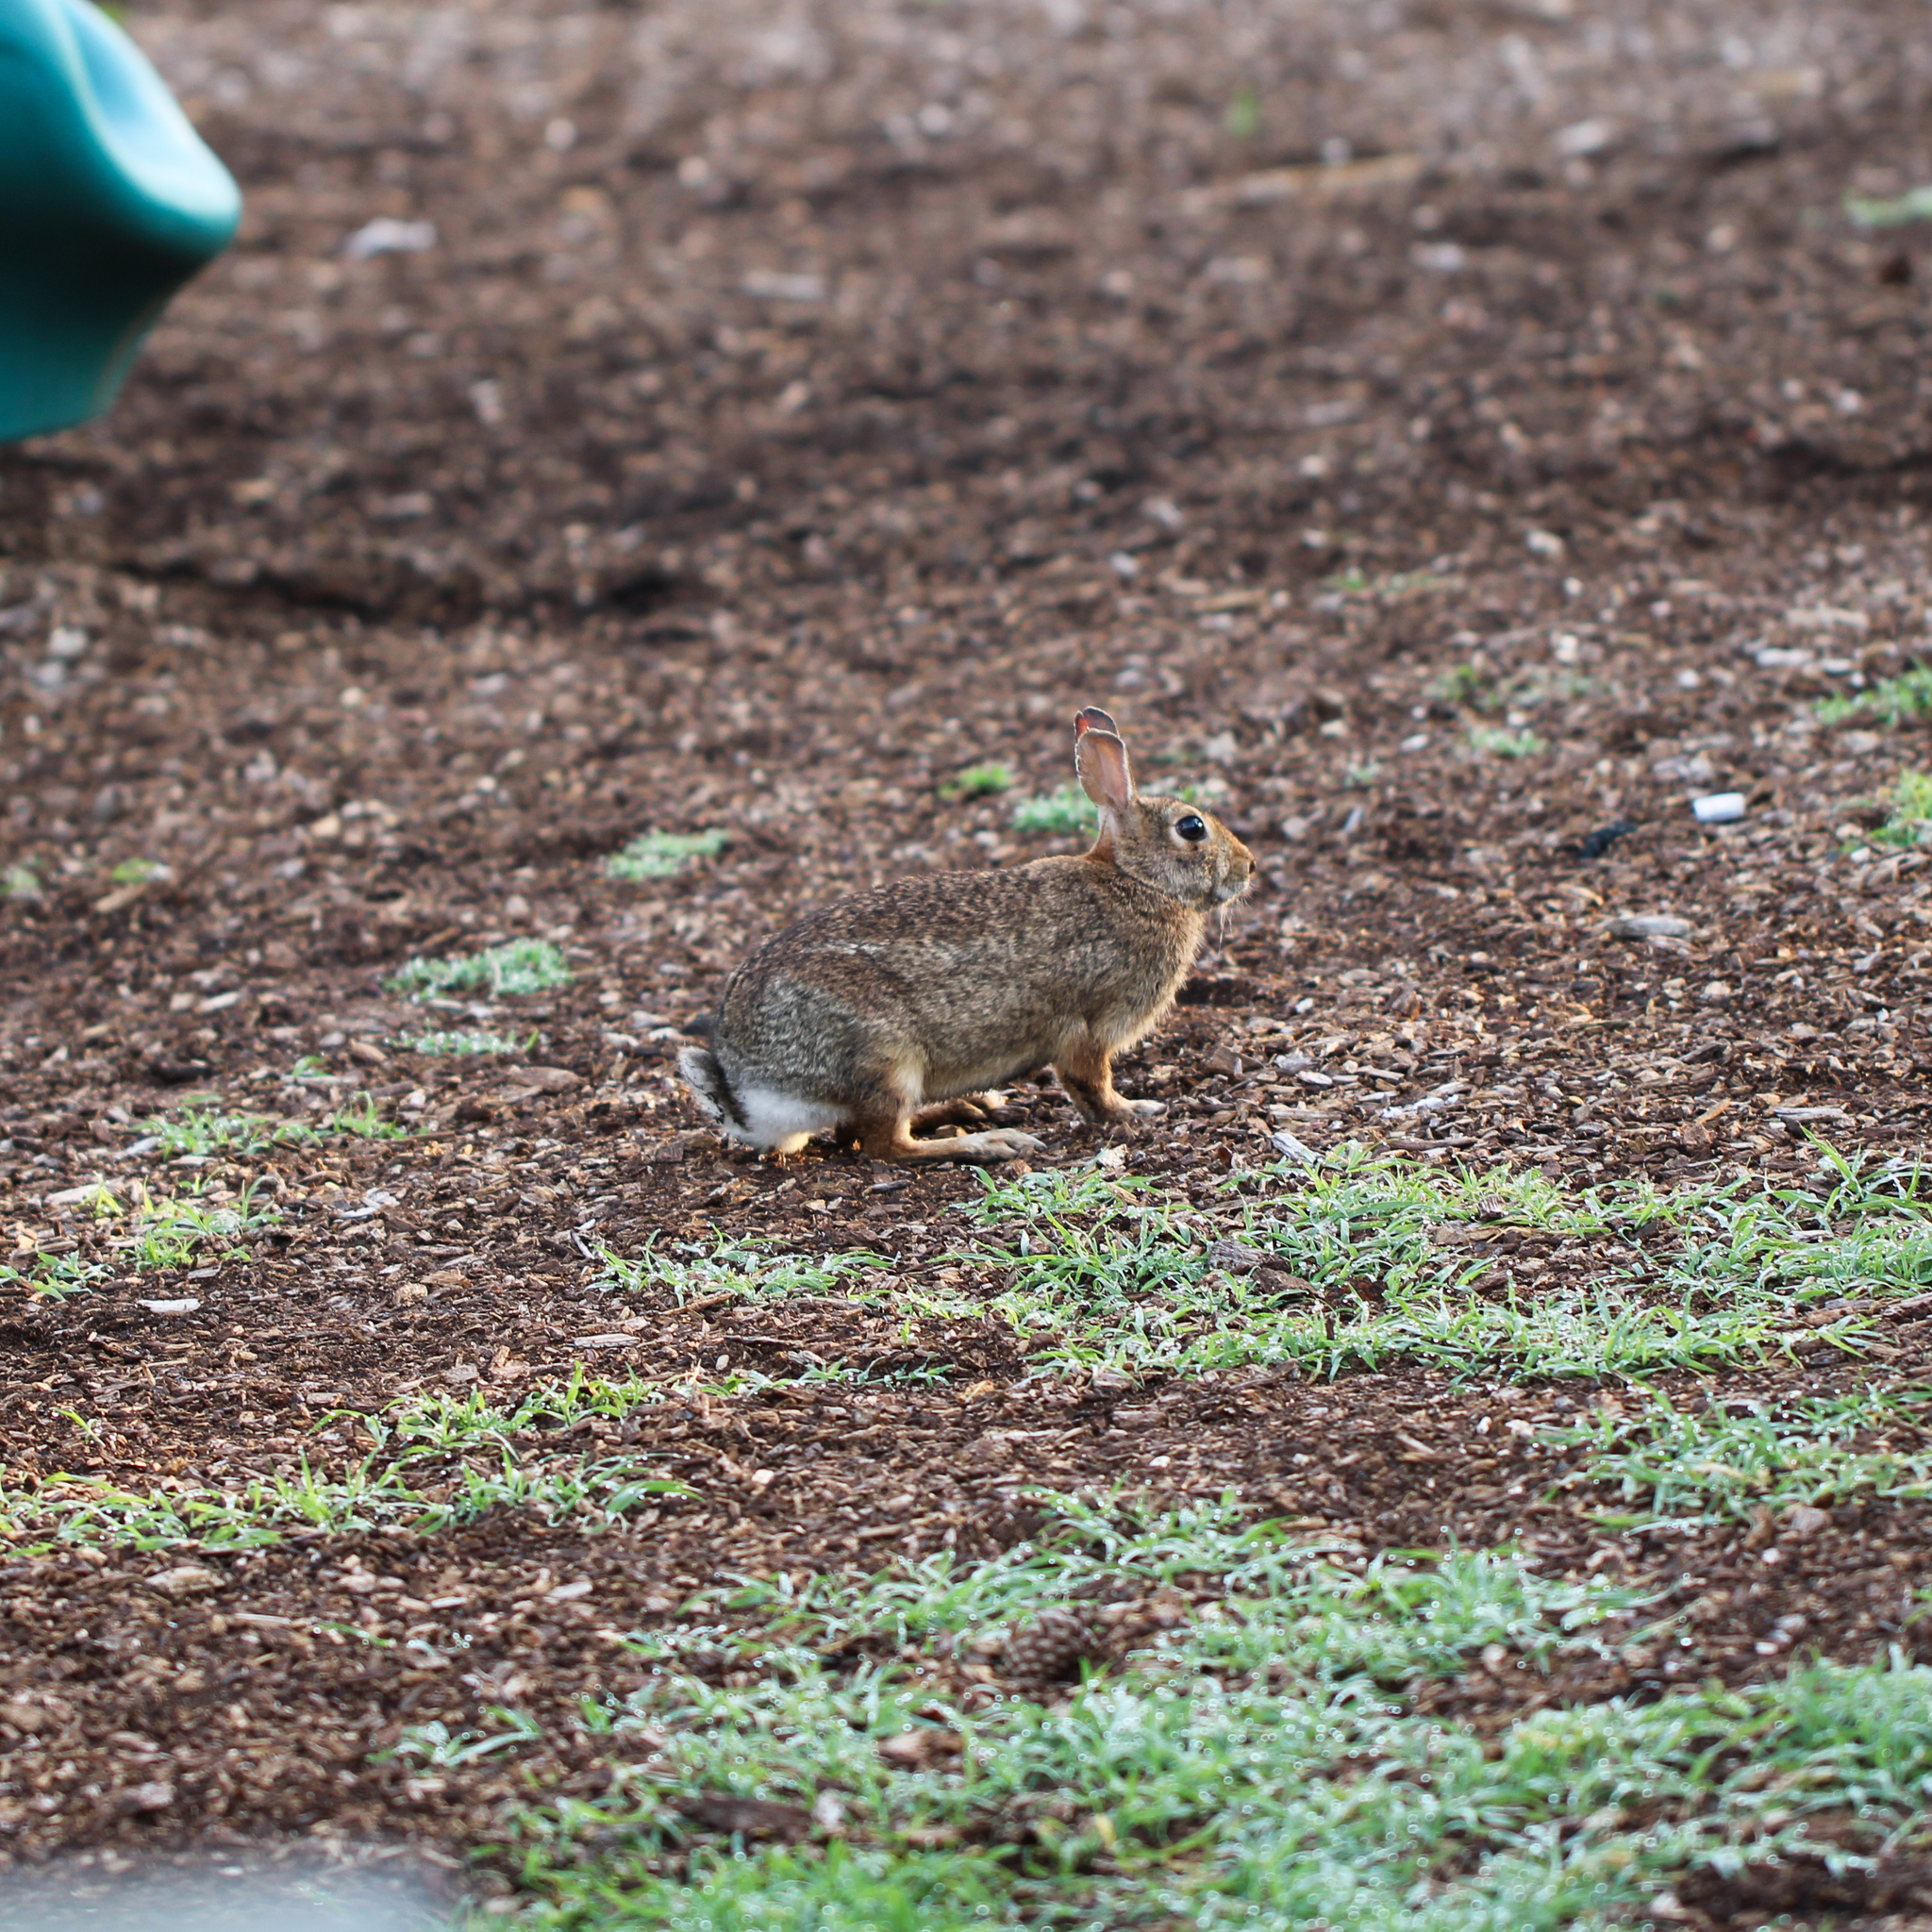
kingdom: Animalia
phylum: Chordata
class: Mammalia
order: Lagomorpha
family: Leporidae
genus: Sylvilagus
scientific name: Sylvilagus floridanus
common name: Eastern cottontail
